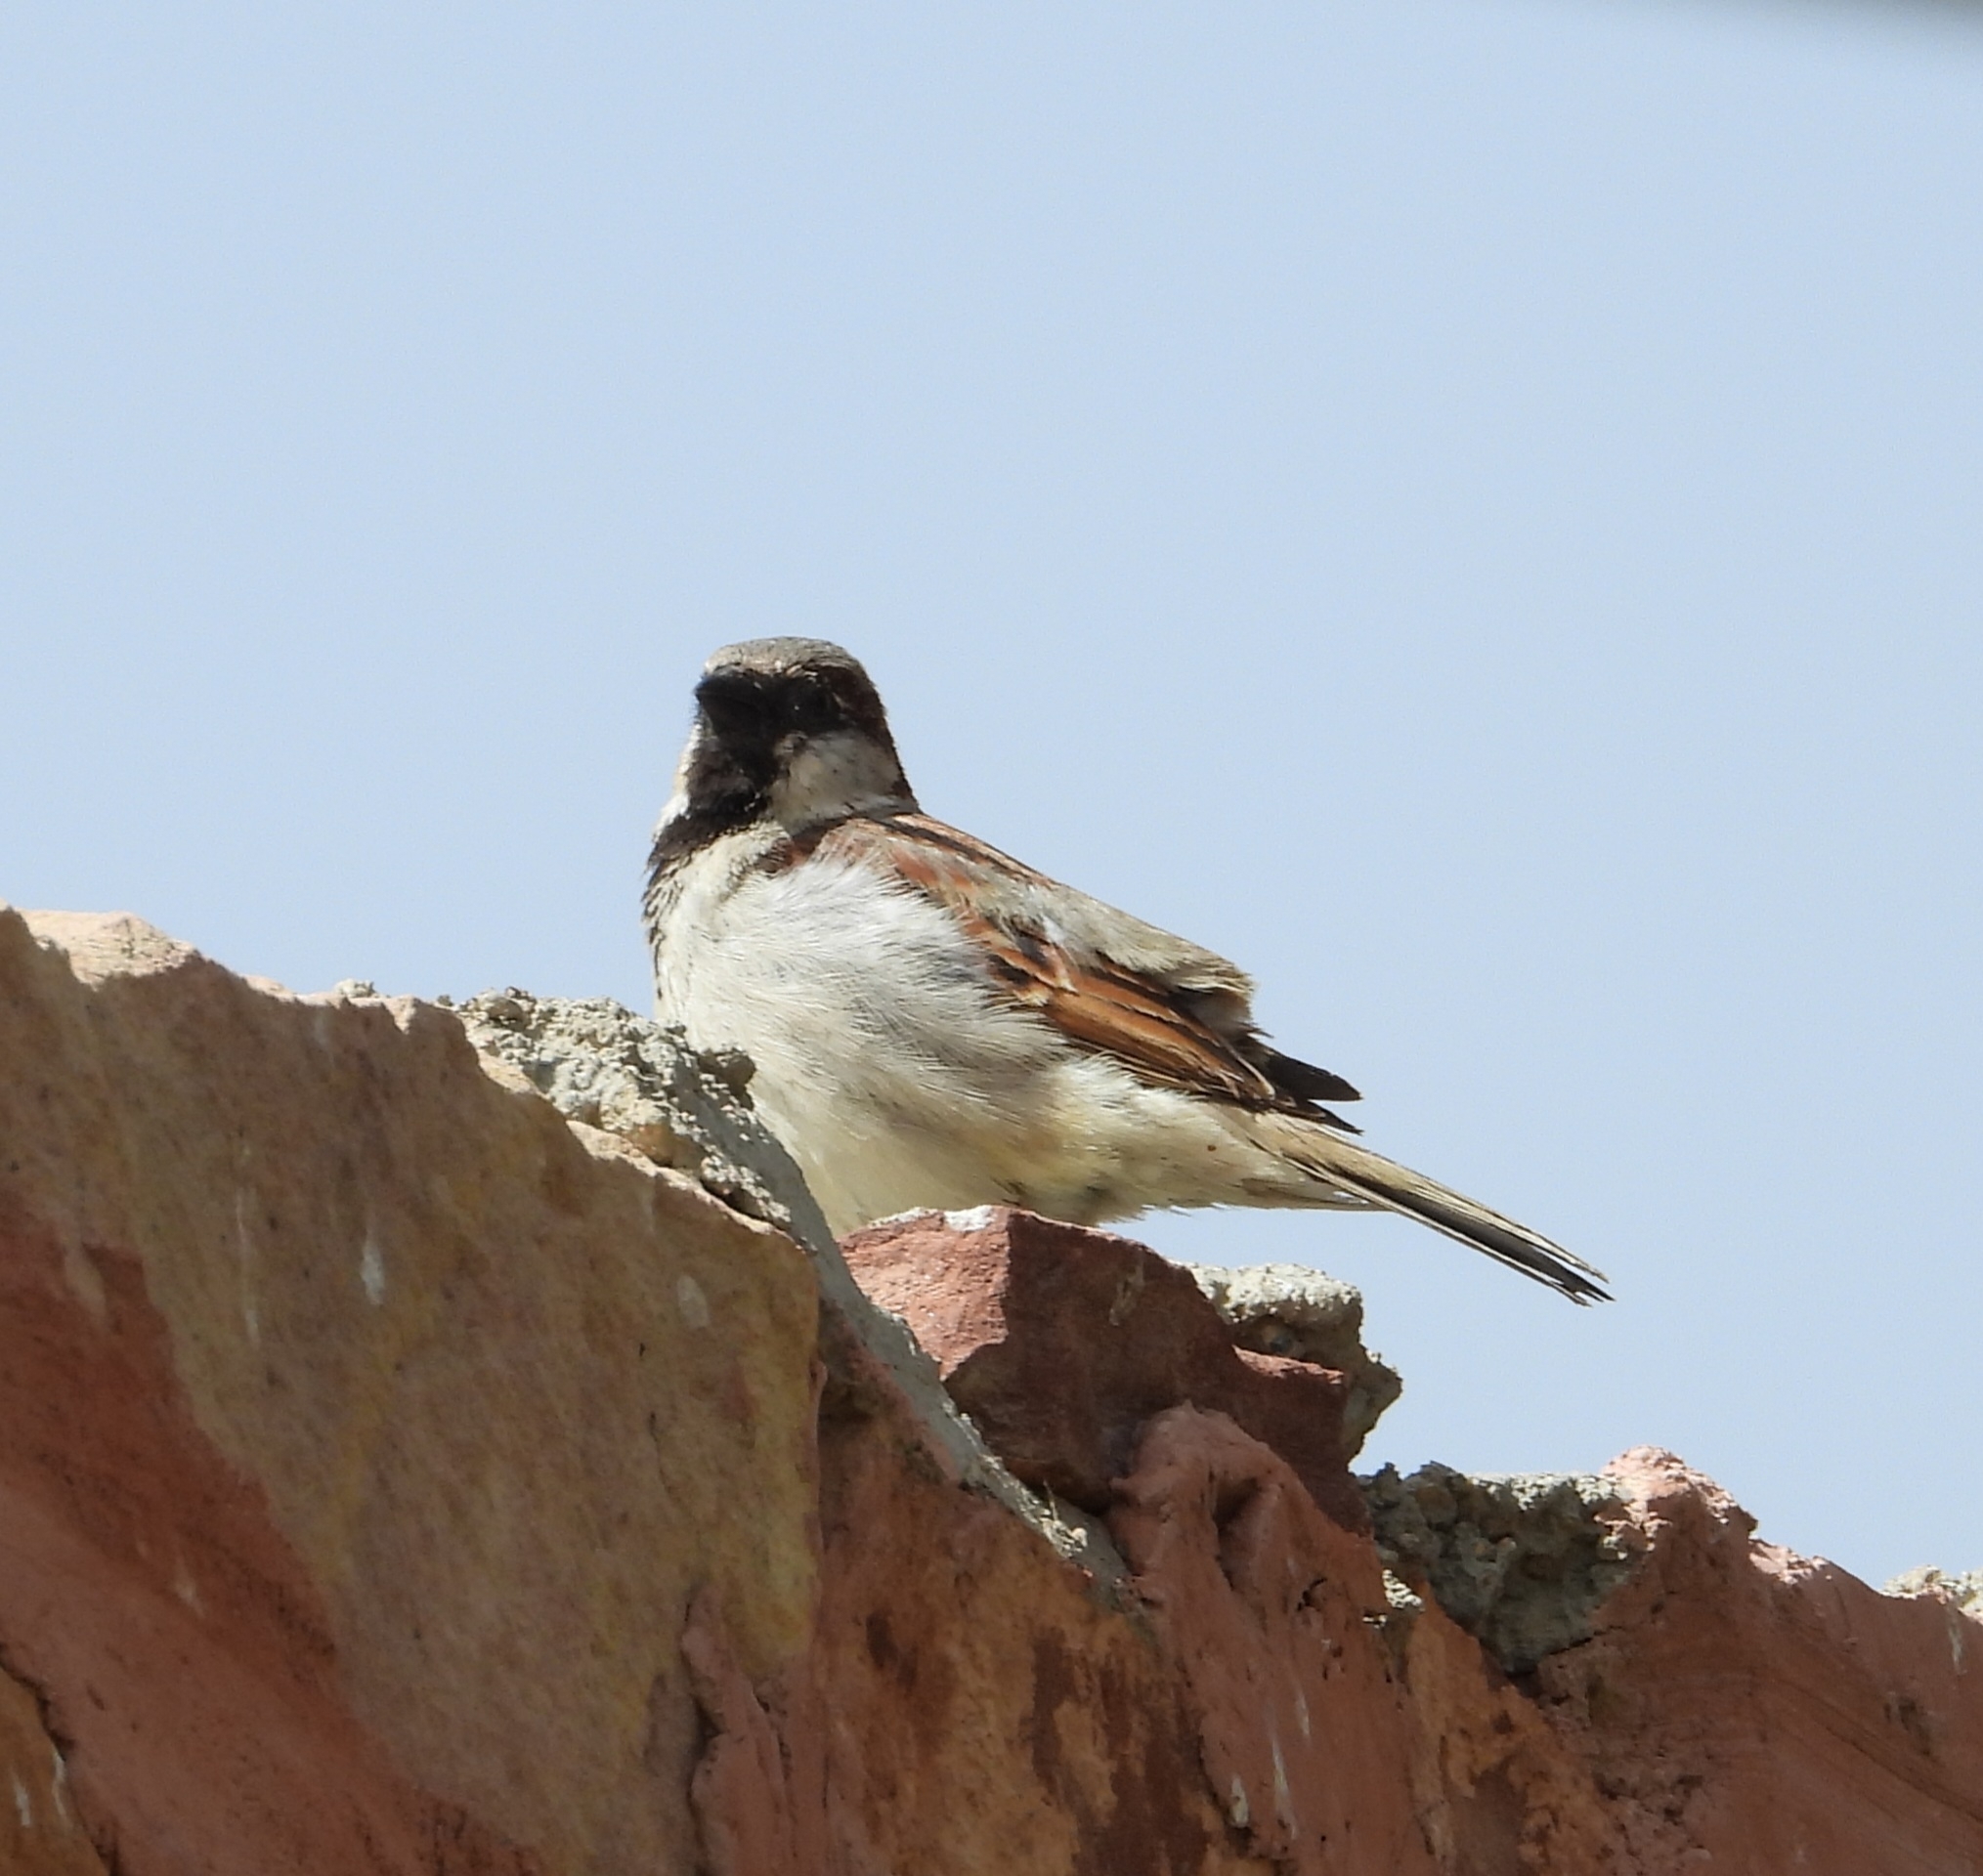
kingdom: Animalia
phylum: Chordata
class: Aves
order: Passeriformes
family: Passeridae
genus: Passer
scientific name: Passer domesticus
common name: House sparrow
